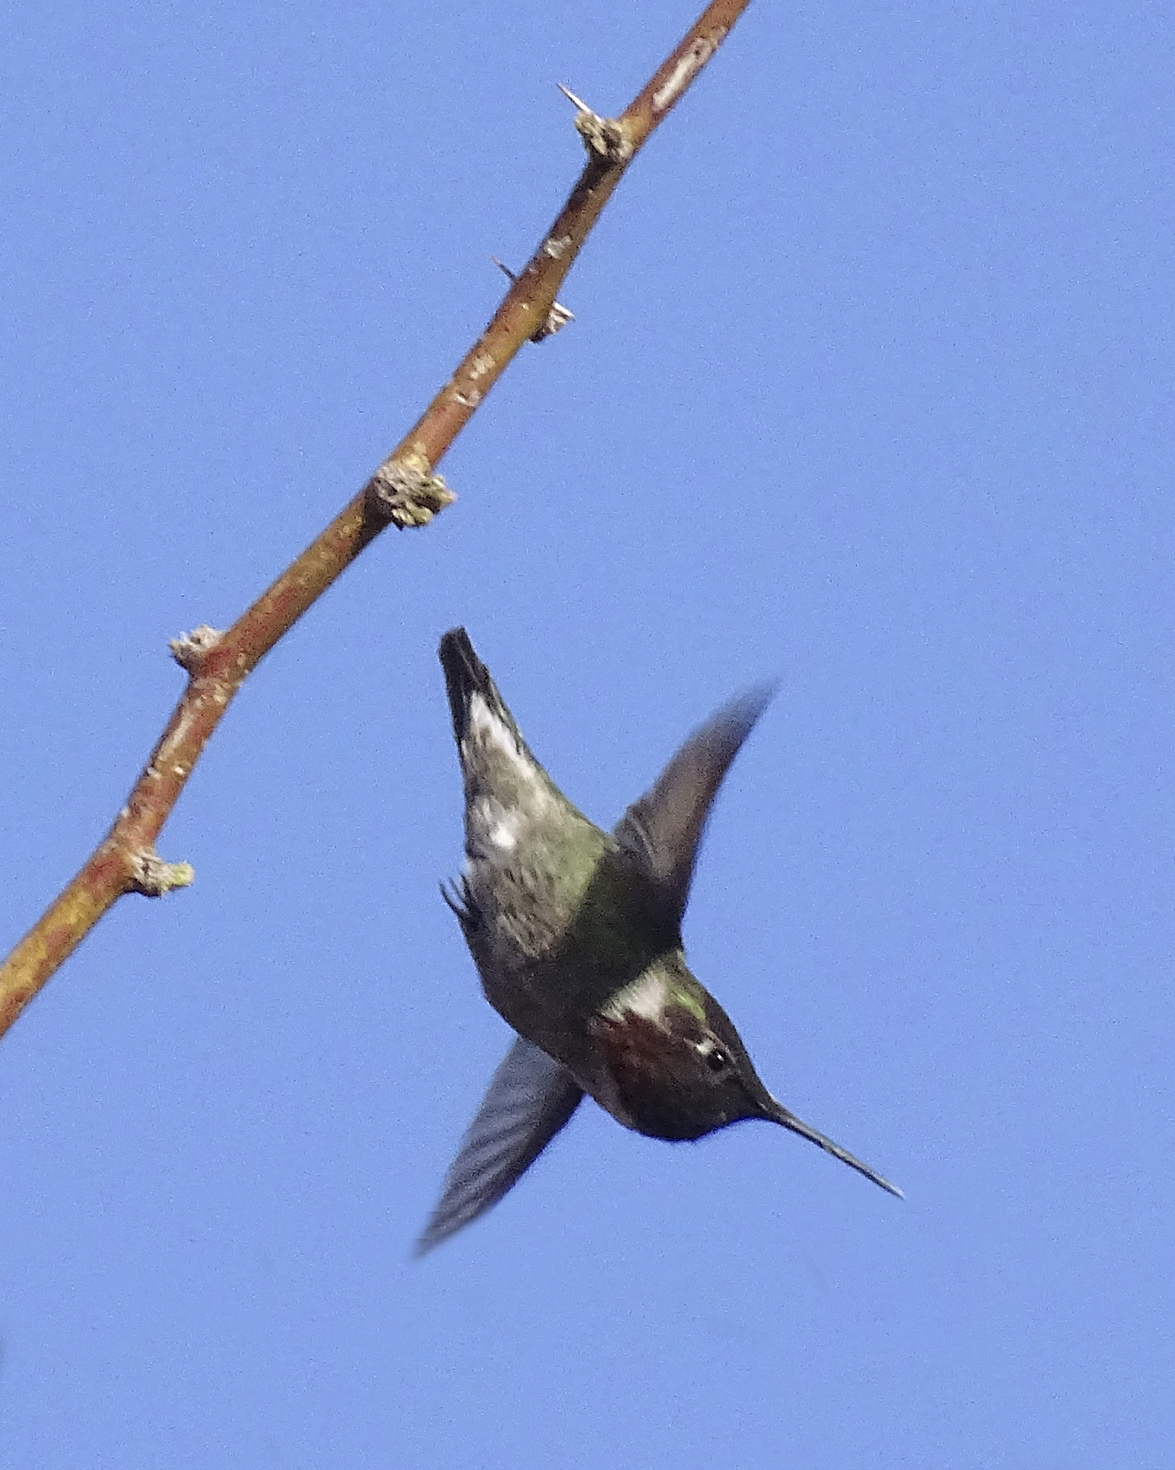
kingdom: Animalia
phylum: Chordata
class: Aves
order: Apodiformes
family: Trochilidae
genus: Calypte
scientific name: Calypte anna
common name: Anna's hummingbird
